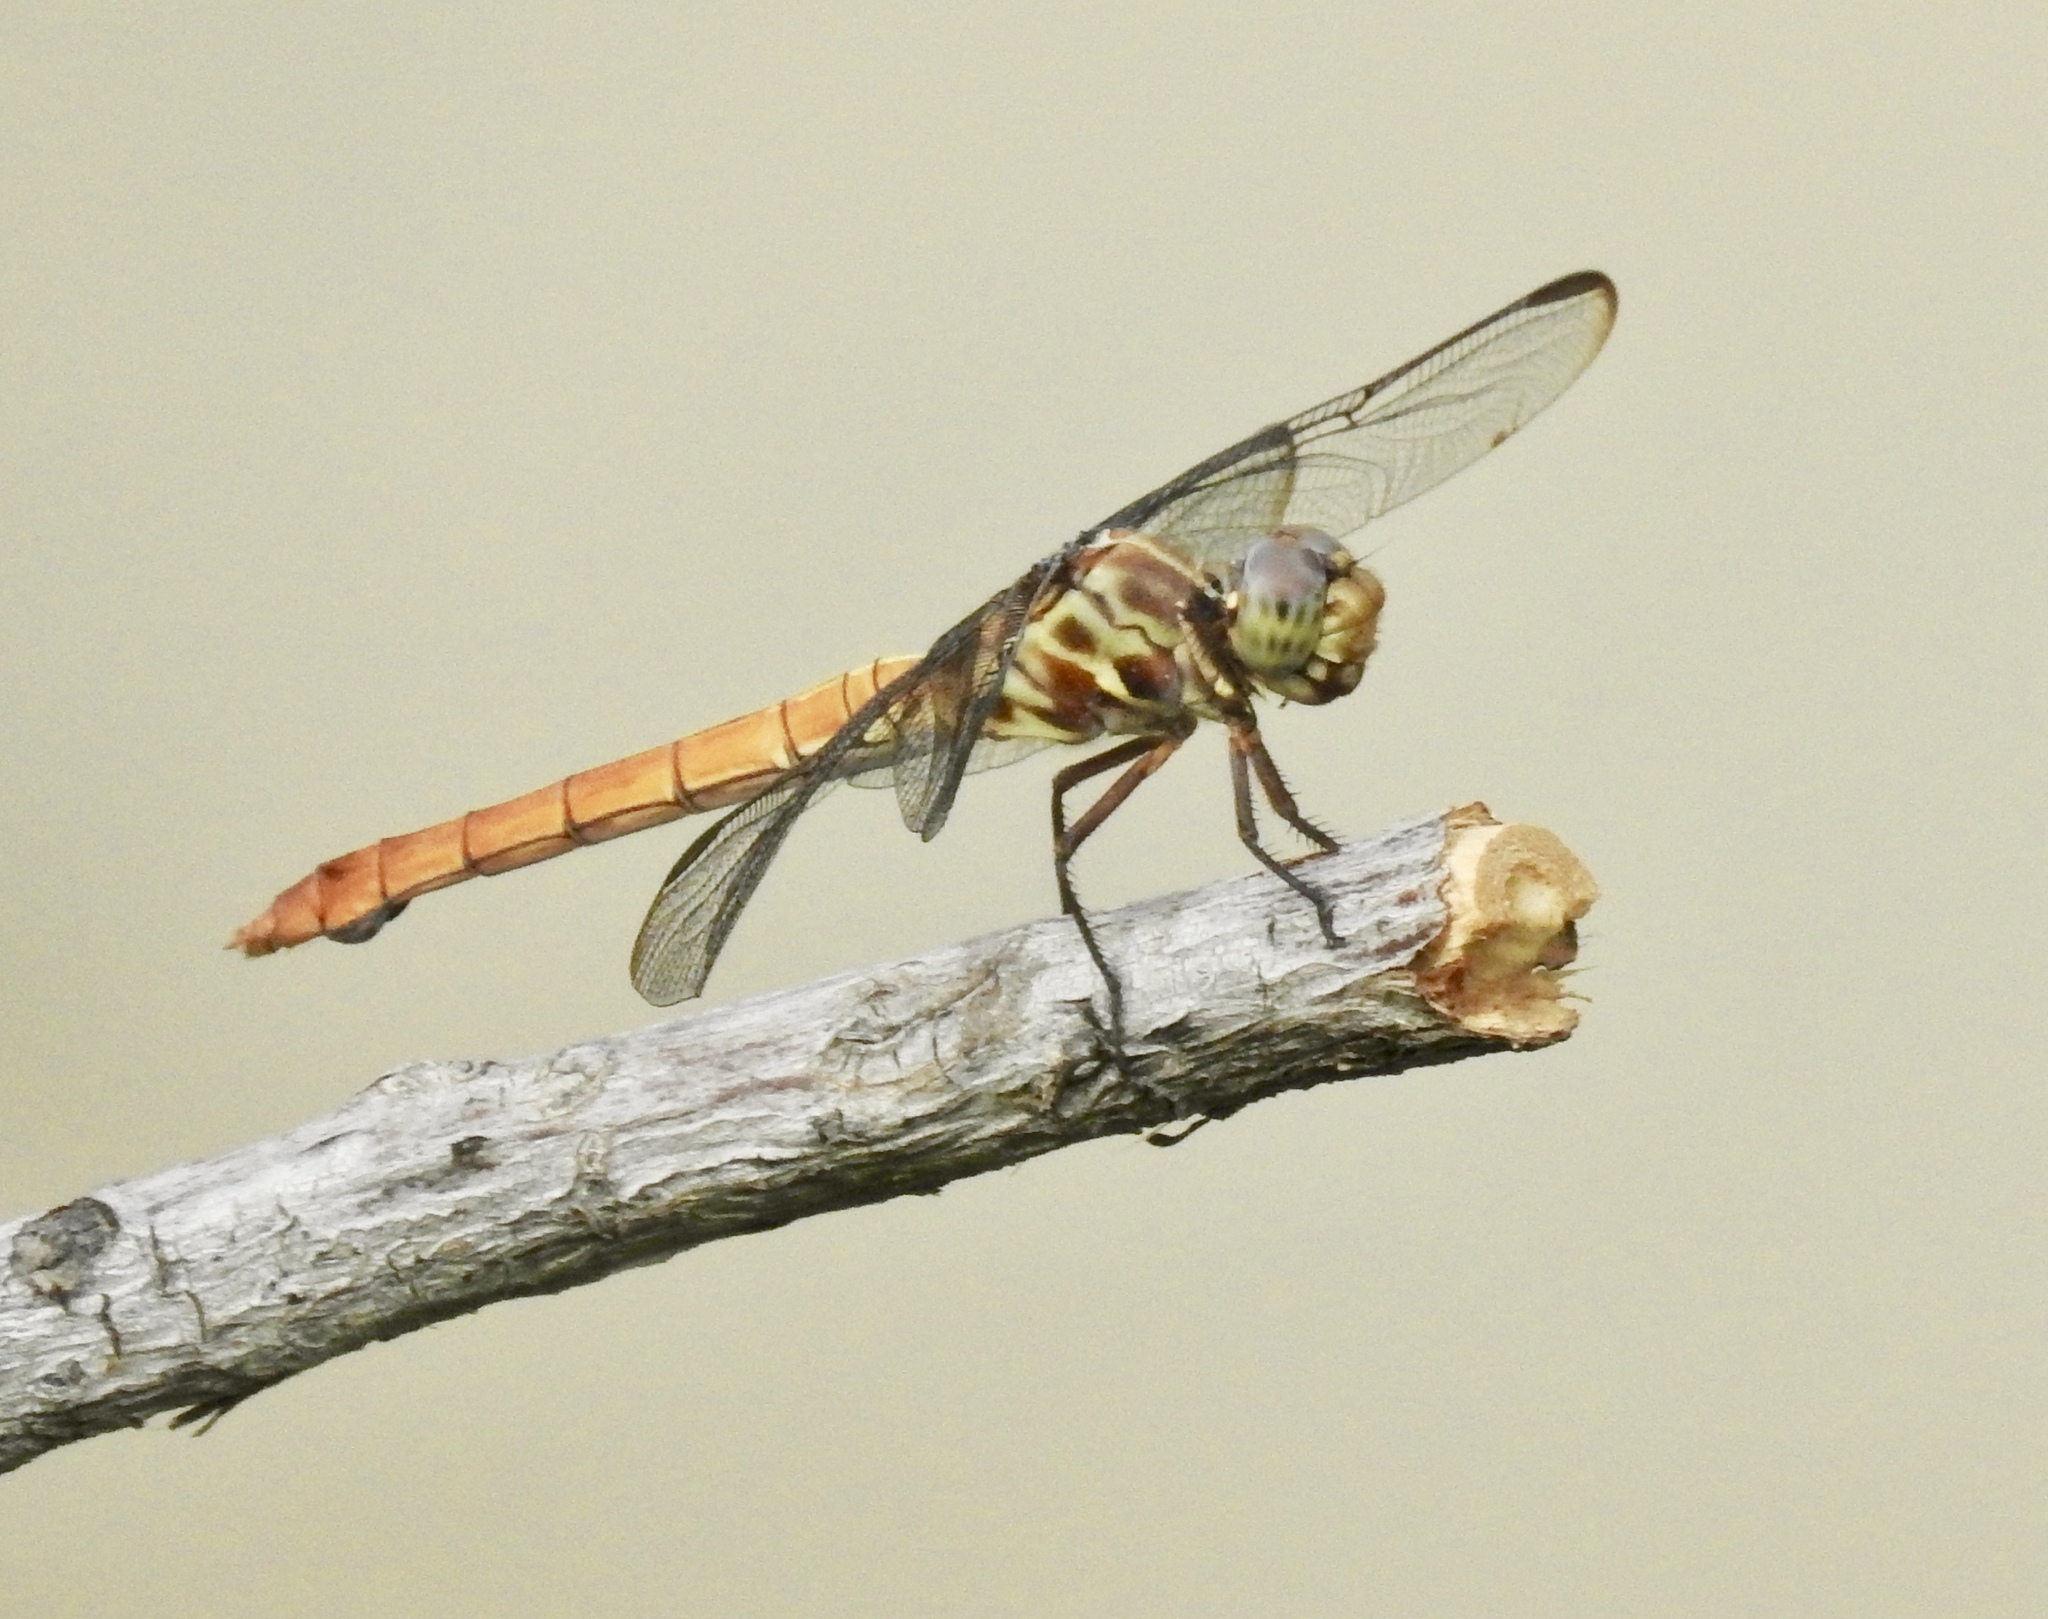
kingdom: Animalia
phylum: Arthropoda
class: Insecta
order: Odonata
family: Libellulidae
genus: Orthemis
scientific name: Orthemis ferruginea
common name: Roseate skimmer
